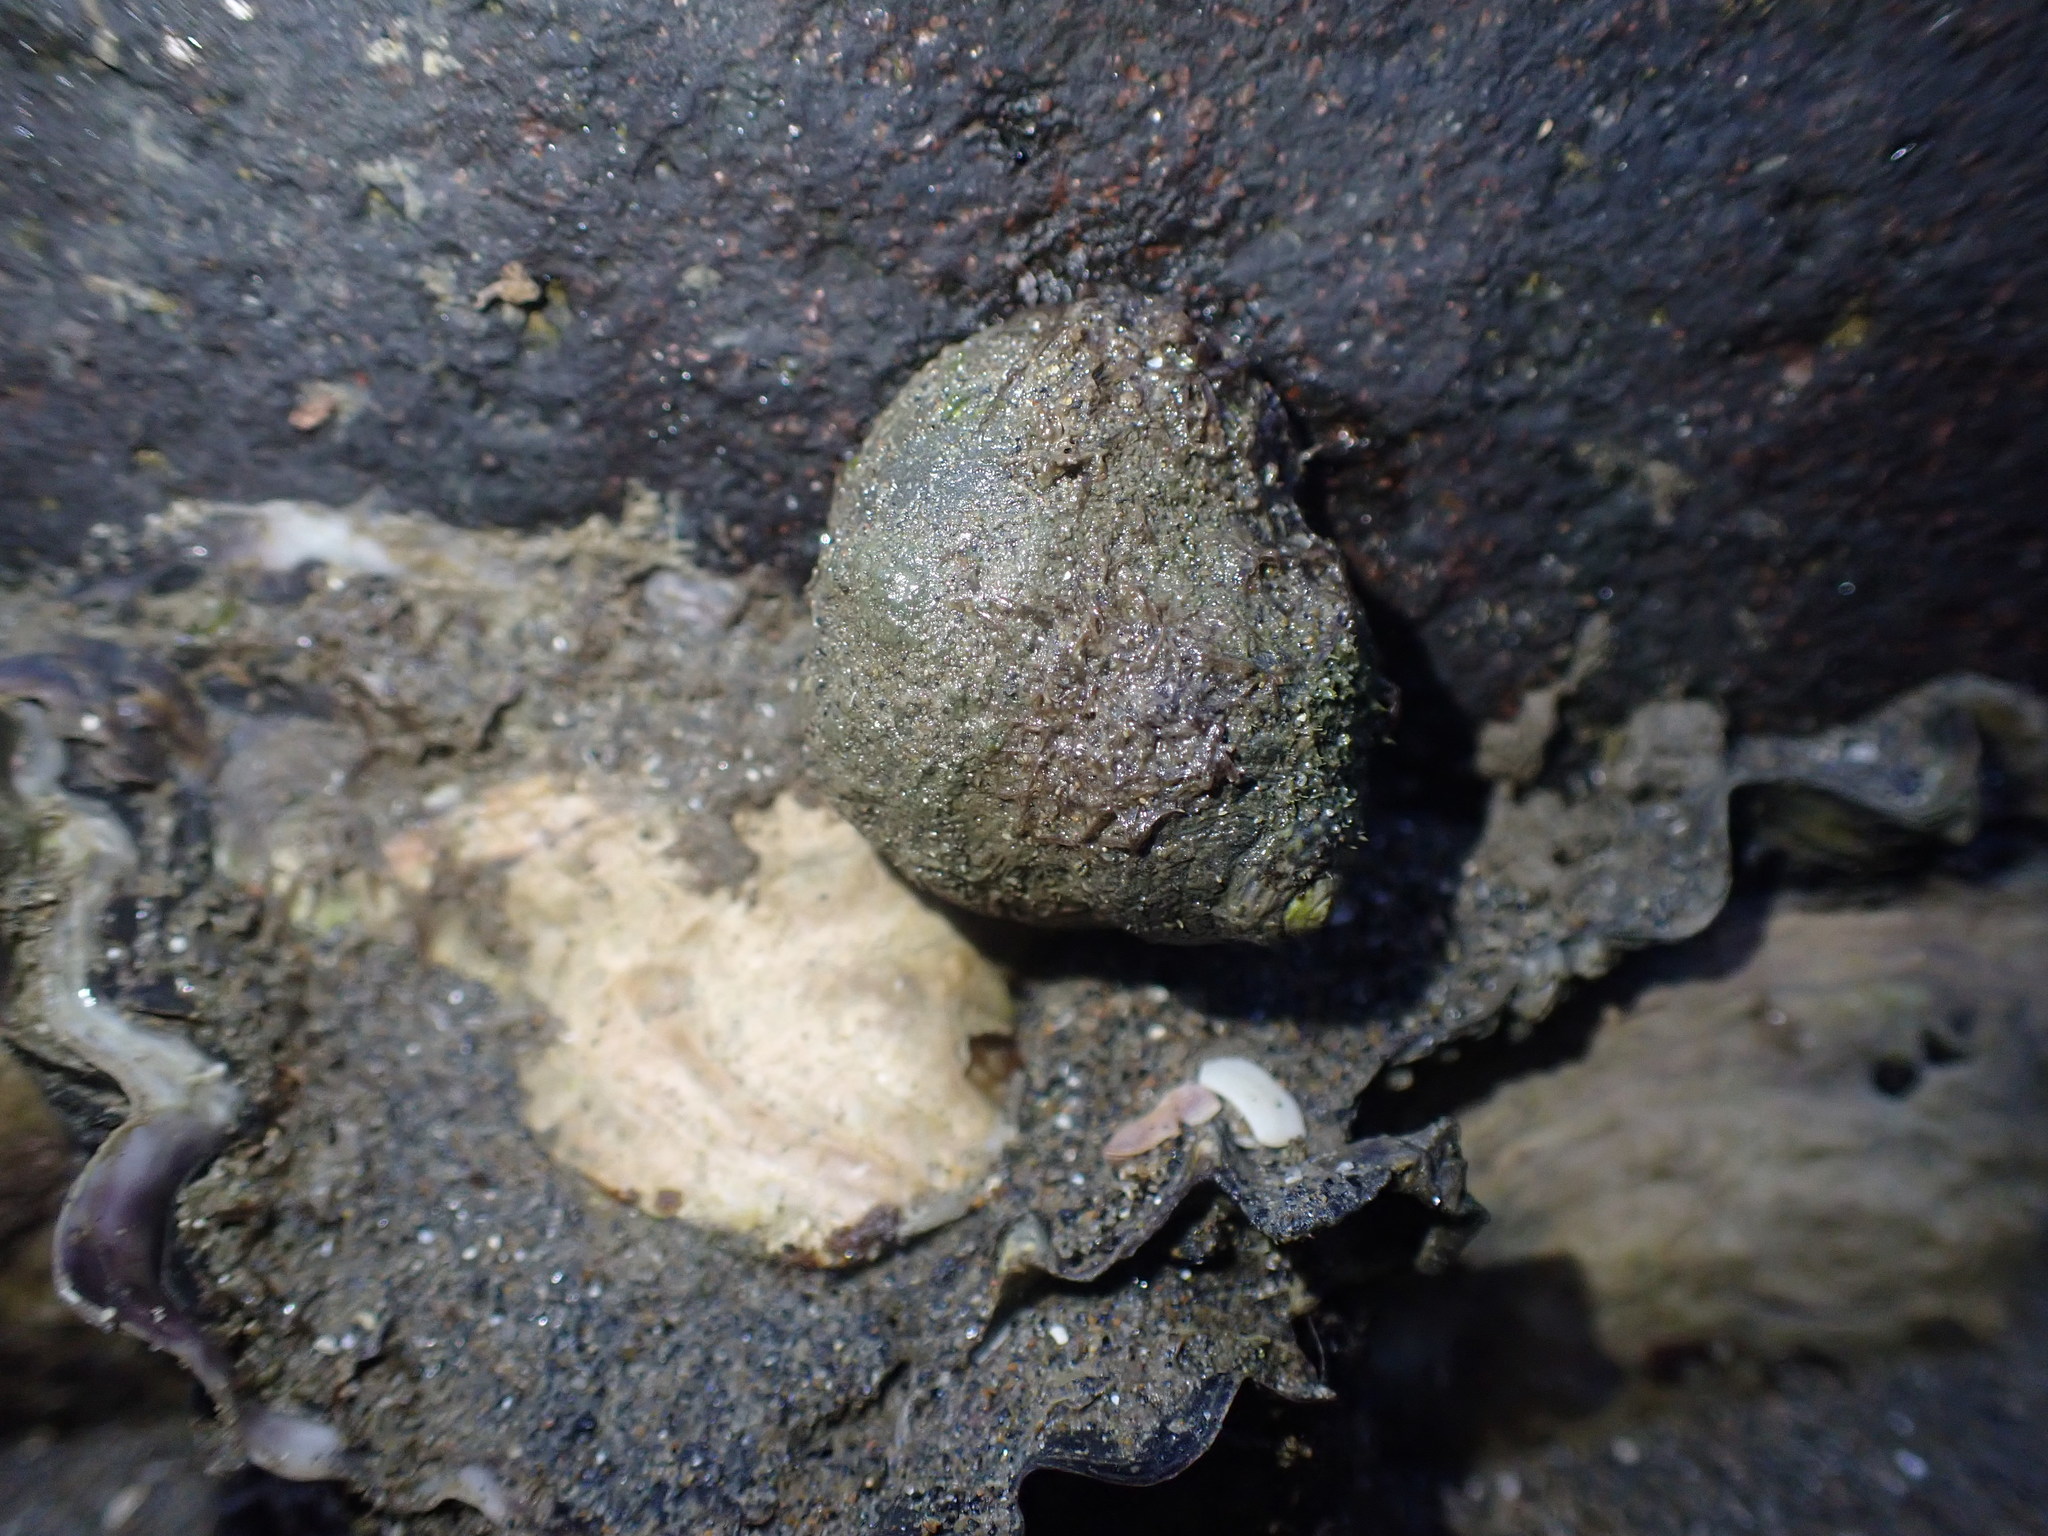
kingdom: Animalia
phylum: Mollusca
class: Gastropoda
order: Trochida
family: Trochidae
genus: Diloma
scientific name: Diloma aethiops
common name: Scorched monodont
